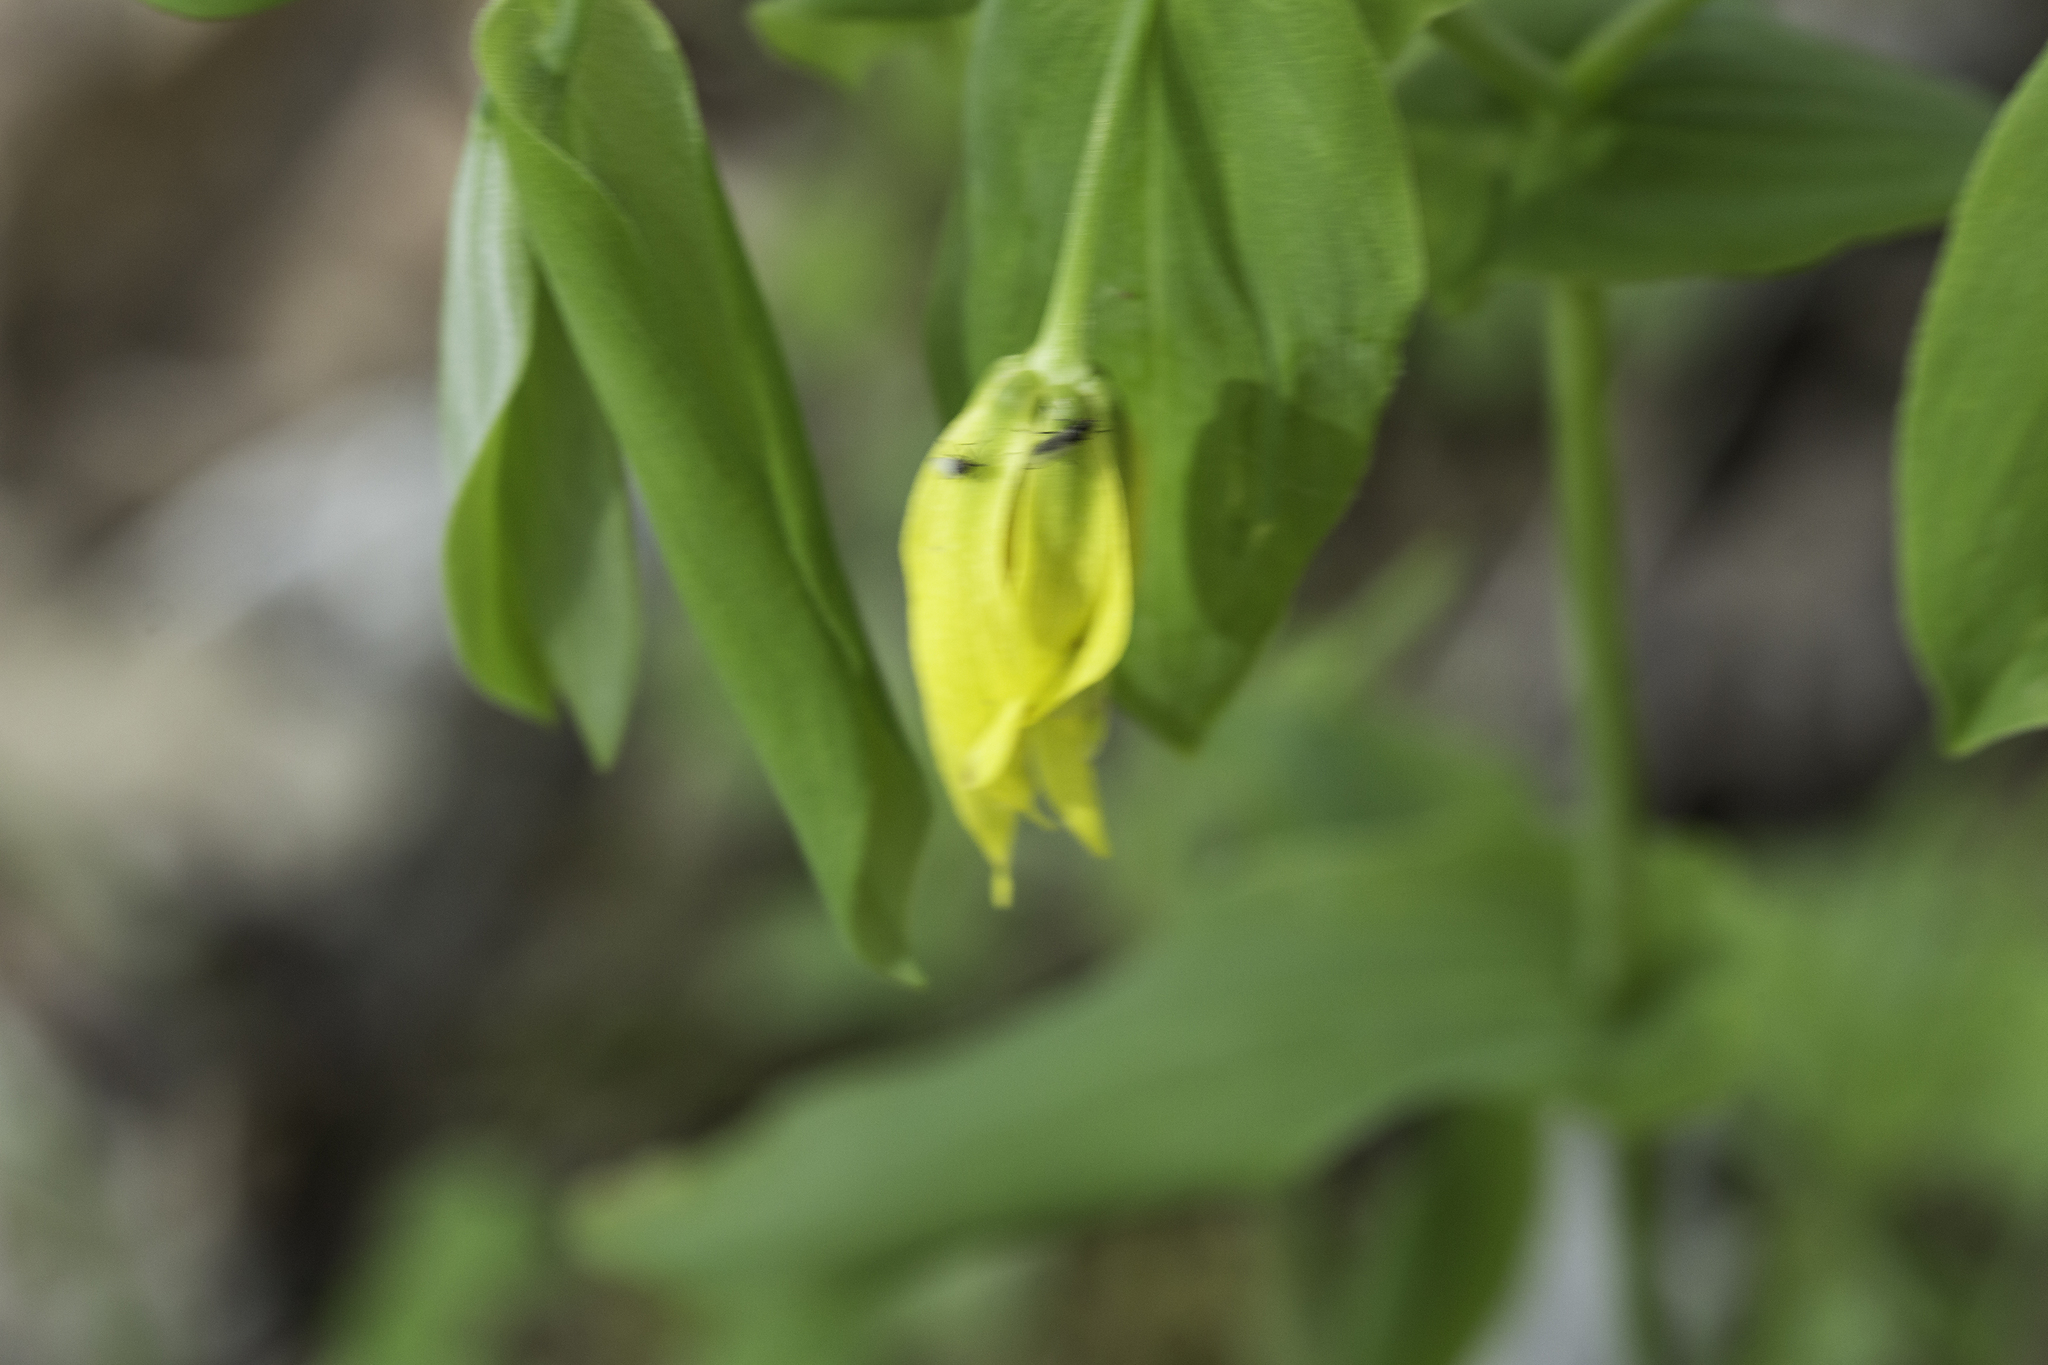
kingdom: Plantae
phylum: Tracheophyta
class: Liliopsida
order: Liliales
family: Colchicaceae
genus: Uvularia
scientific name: Uvularia grandiflora
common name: Bellwort
